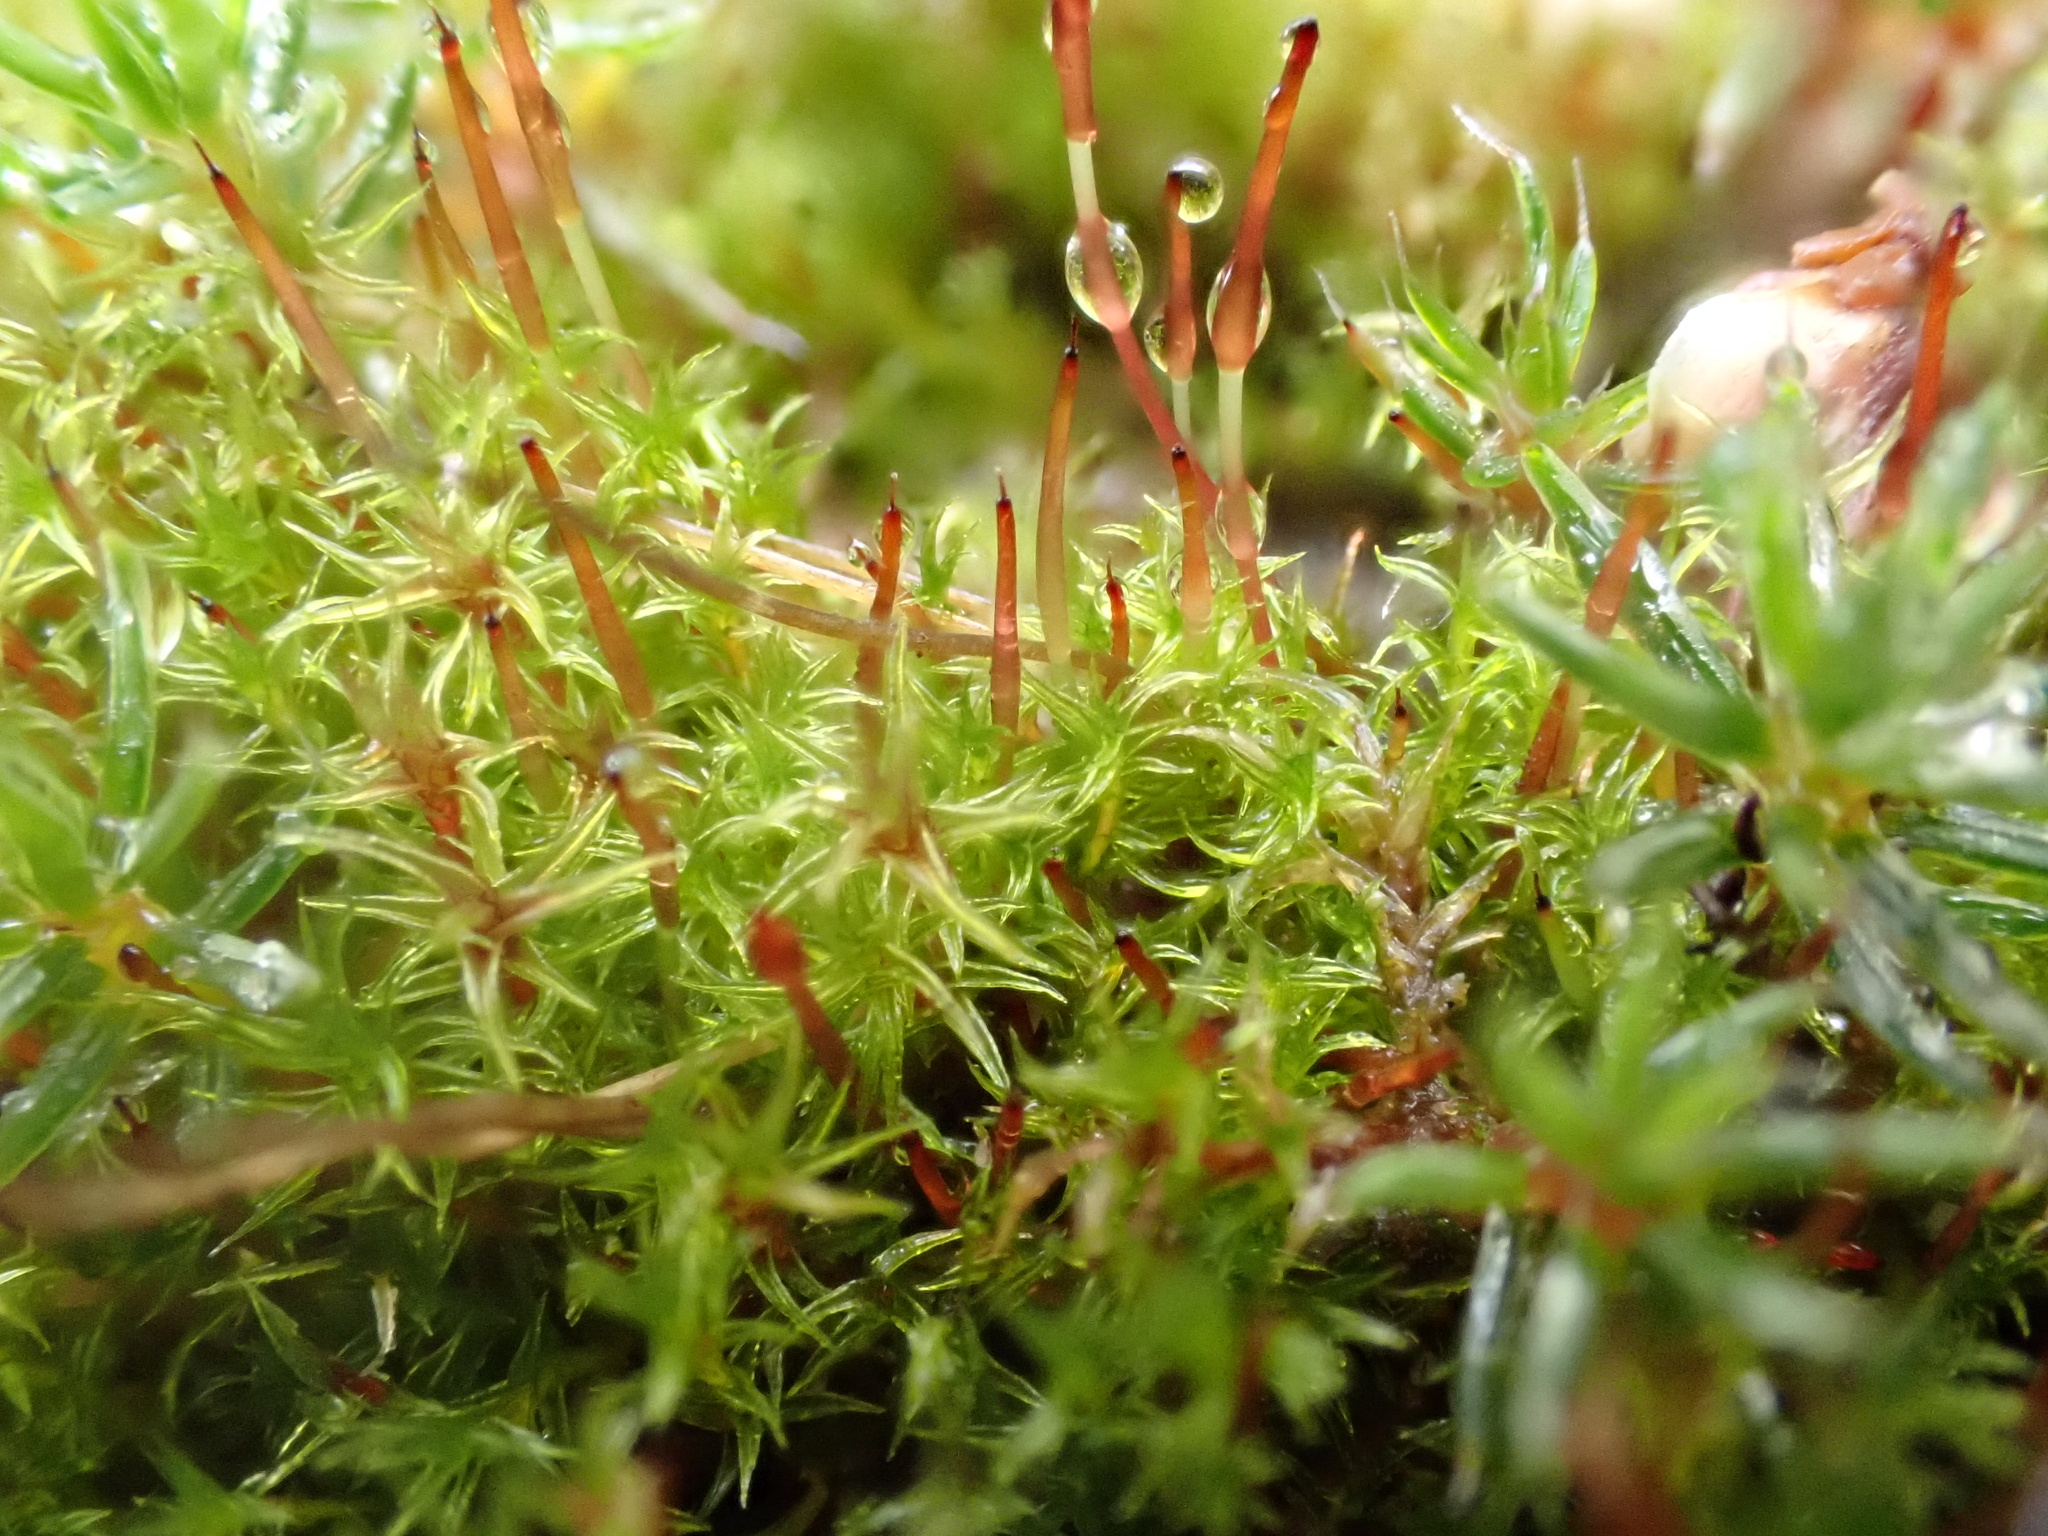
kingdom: Plantae
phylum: Bryophyta
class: Bryopsida
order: Dicranales
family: Ditrichaceae
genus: Ceratodon
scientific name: Ceratodon purpureus
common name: Redshank
